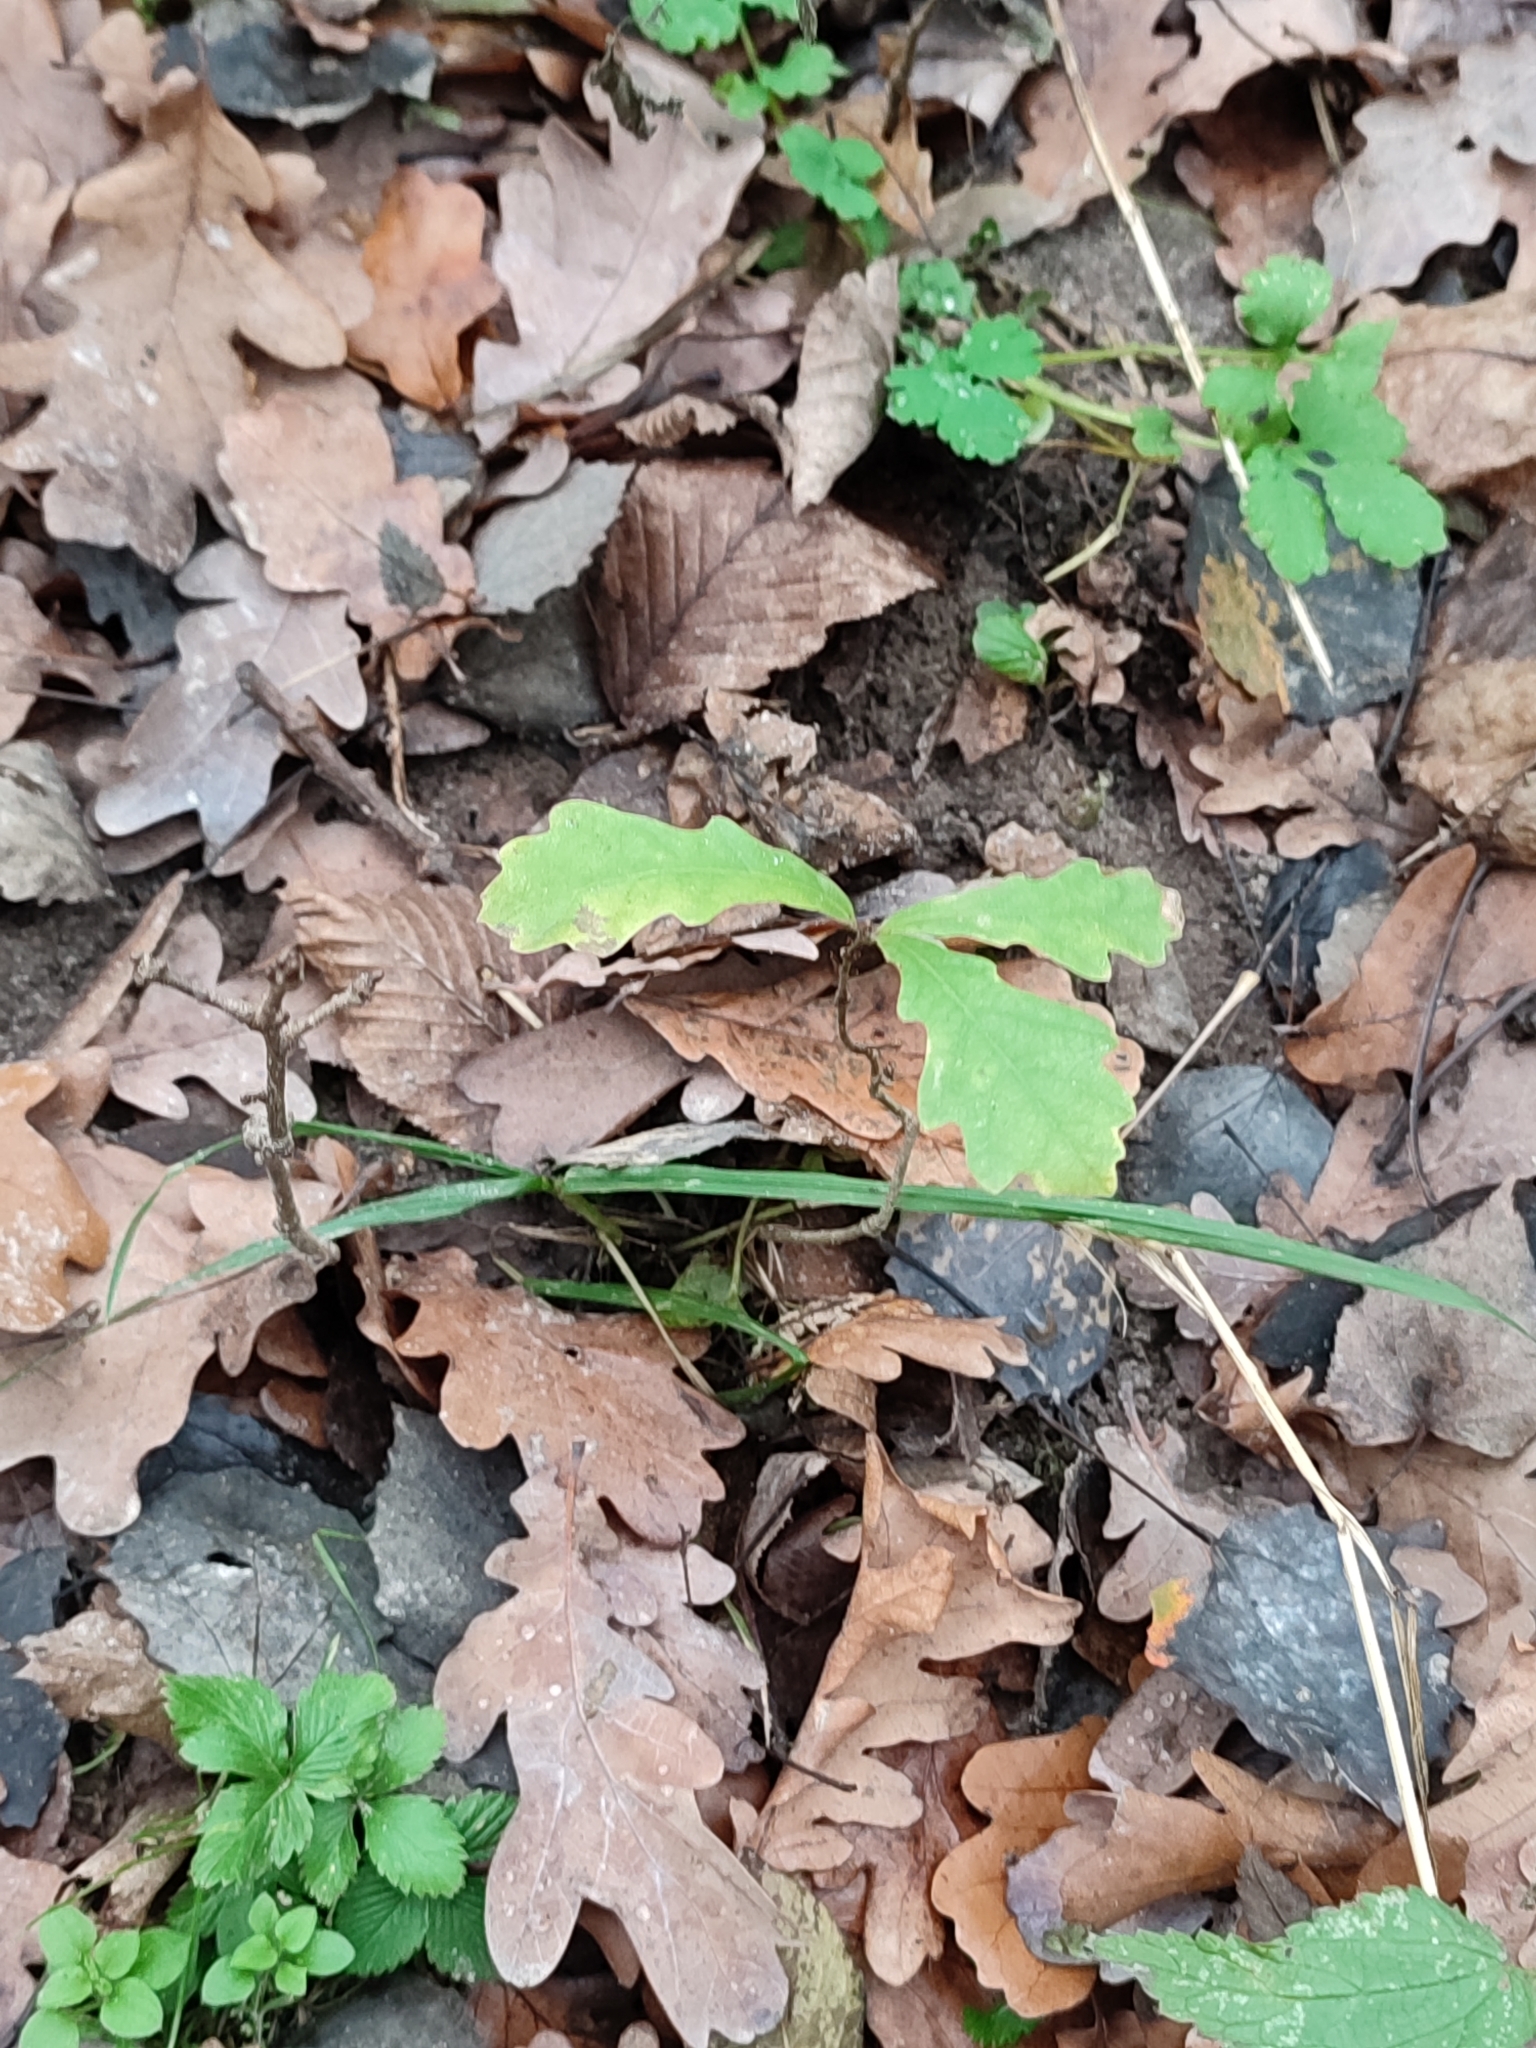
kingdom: Plantae
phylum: Tracheophyta
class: Magnoliopsida
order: Fagales
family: Fagaceae
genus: Quercus
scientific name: Quercus robur
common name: Pedunculate oak
